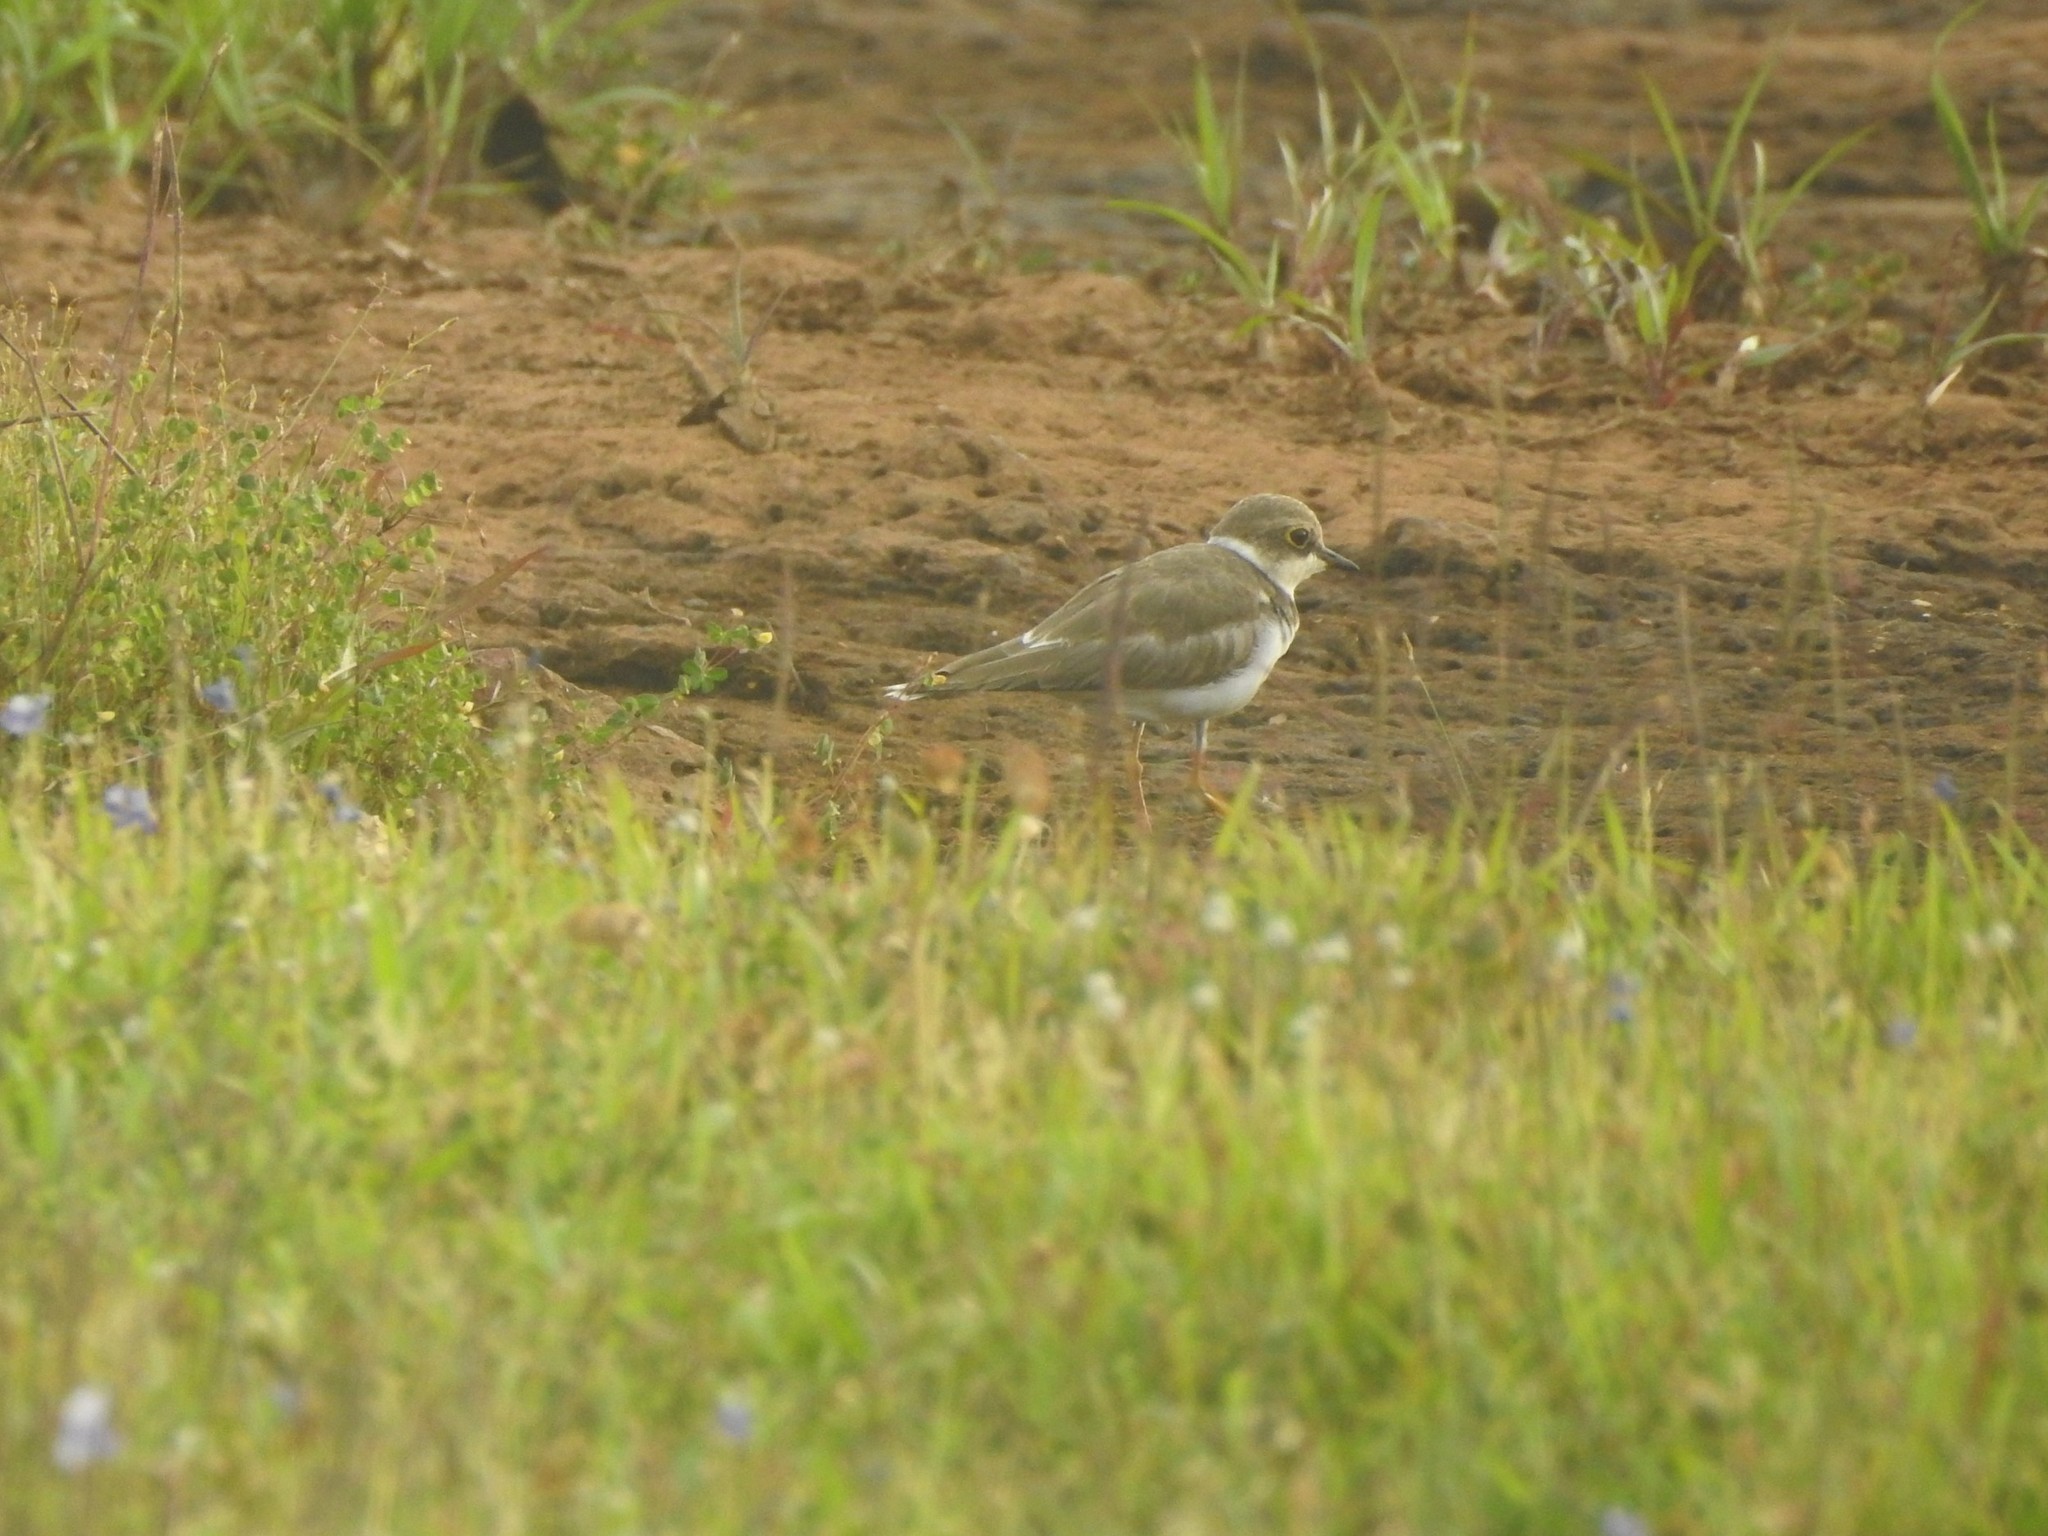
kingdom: Animalia
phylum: Chordata
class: Aves
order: Charadriiformes
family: Charadriidae
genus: Charadrius
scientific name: Charadrius dubius
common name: Little ringed plover
